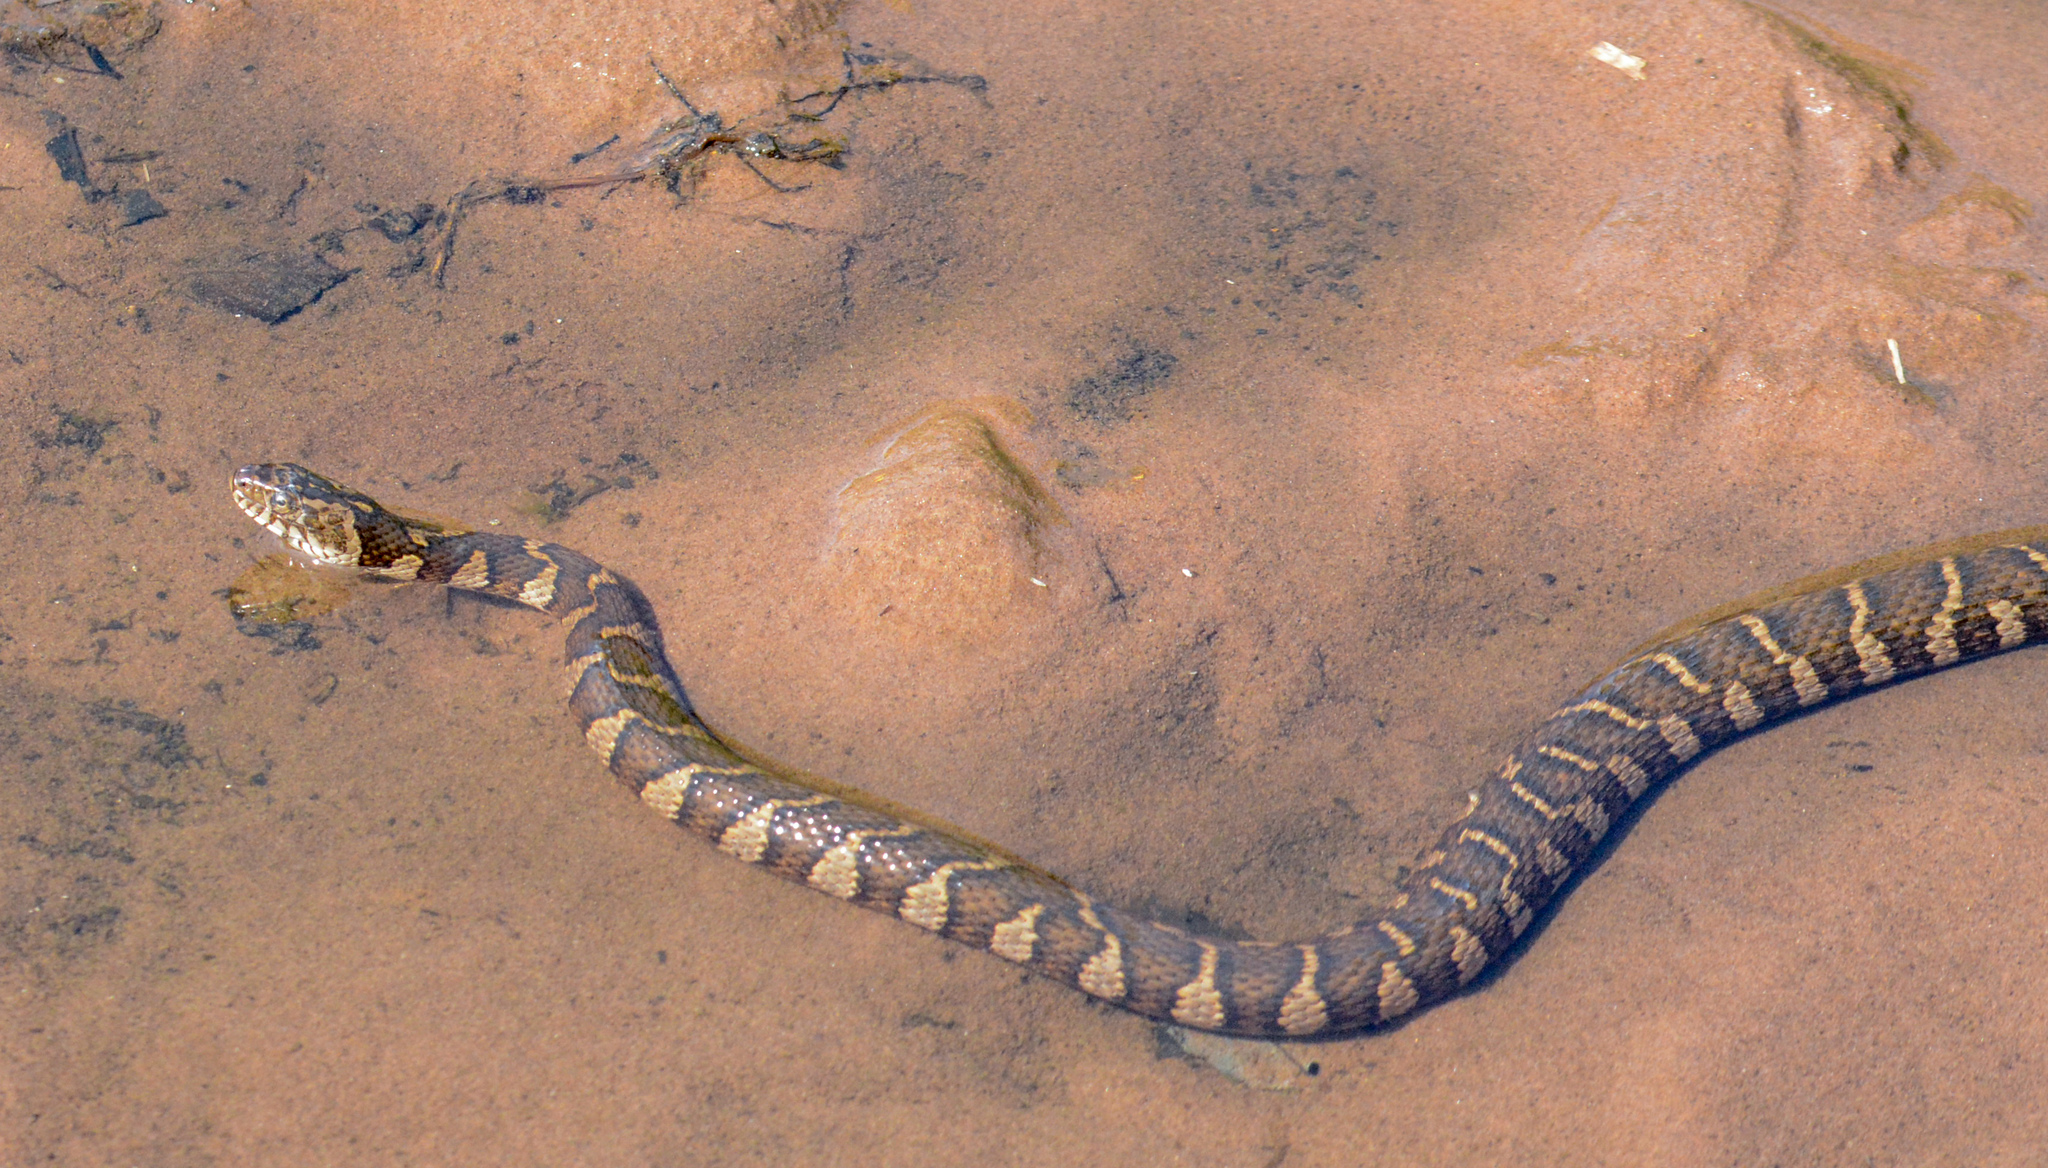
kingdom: Animalia
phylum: Chordata
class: Squamata
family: Colubridae
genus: Nerodia
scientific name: Nerodia sipedon
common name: Northern water snake
